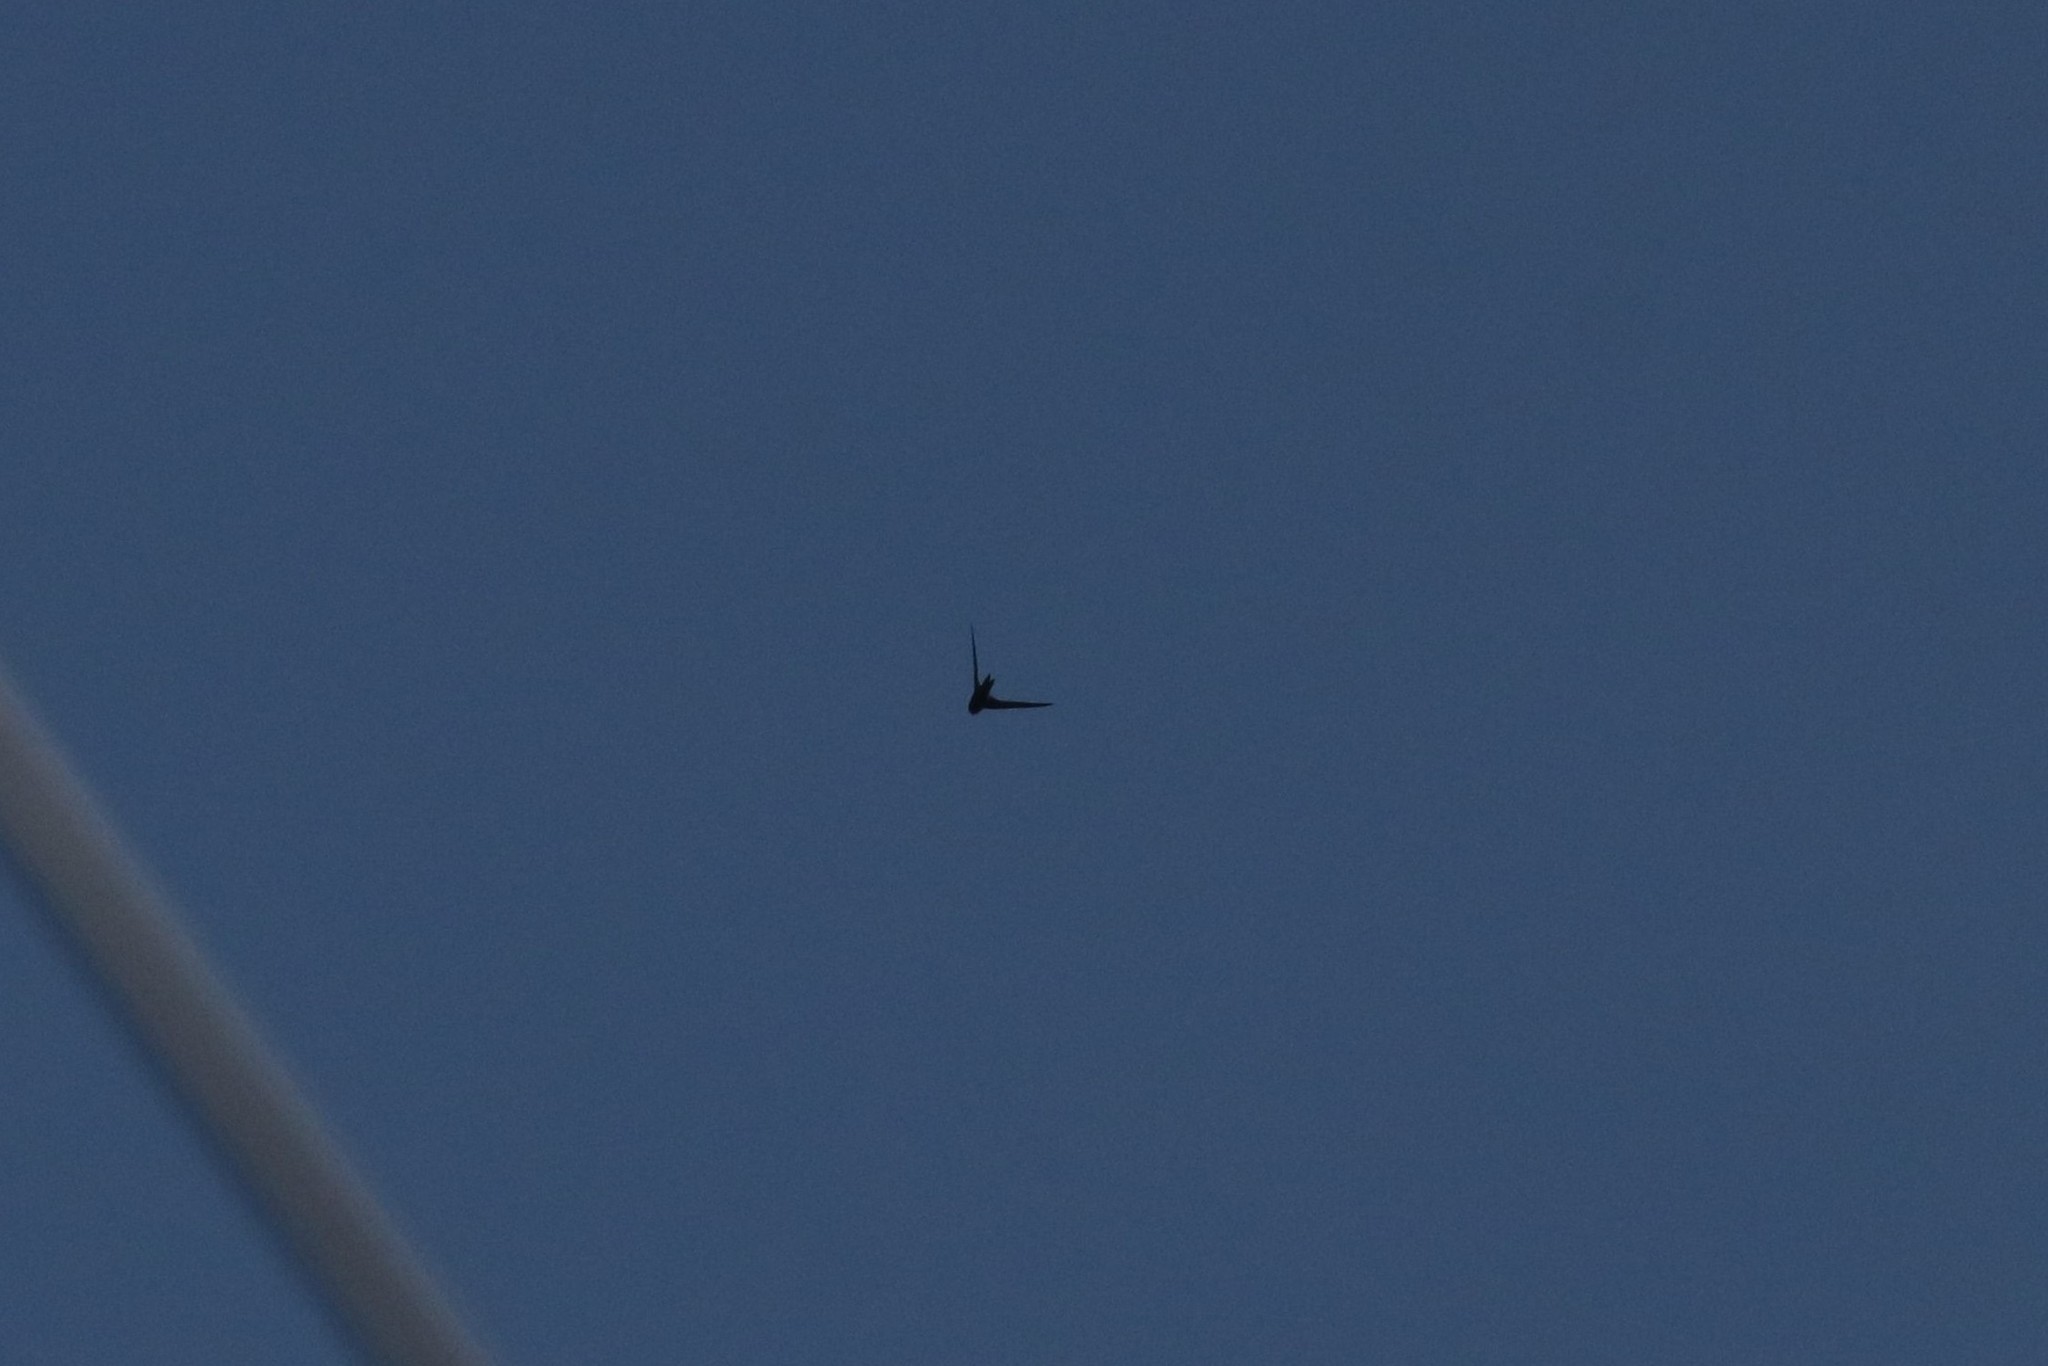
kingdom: Animalia
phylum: Chordata
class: Aves
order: Apodiformes
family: Apodidae
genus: Apus
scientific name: Apus apus
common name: Common swift
